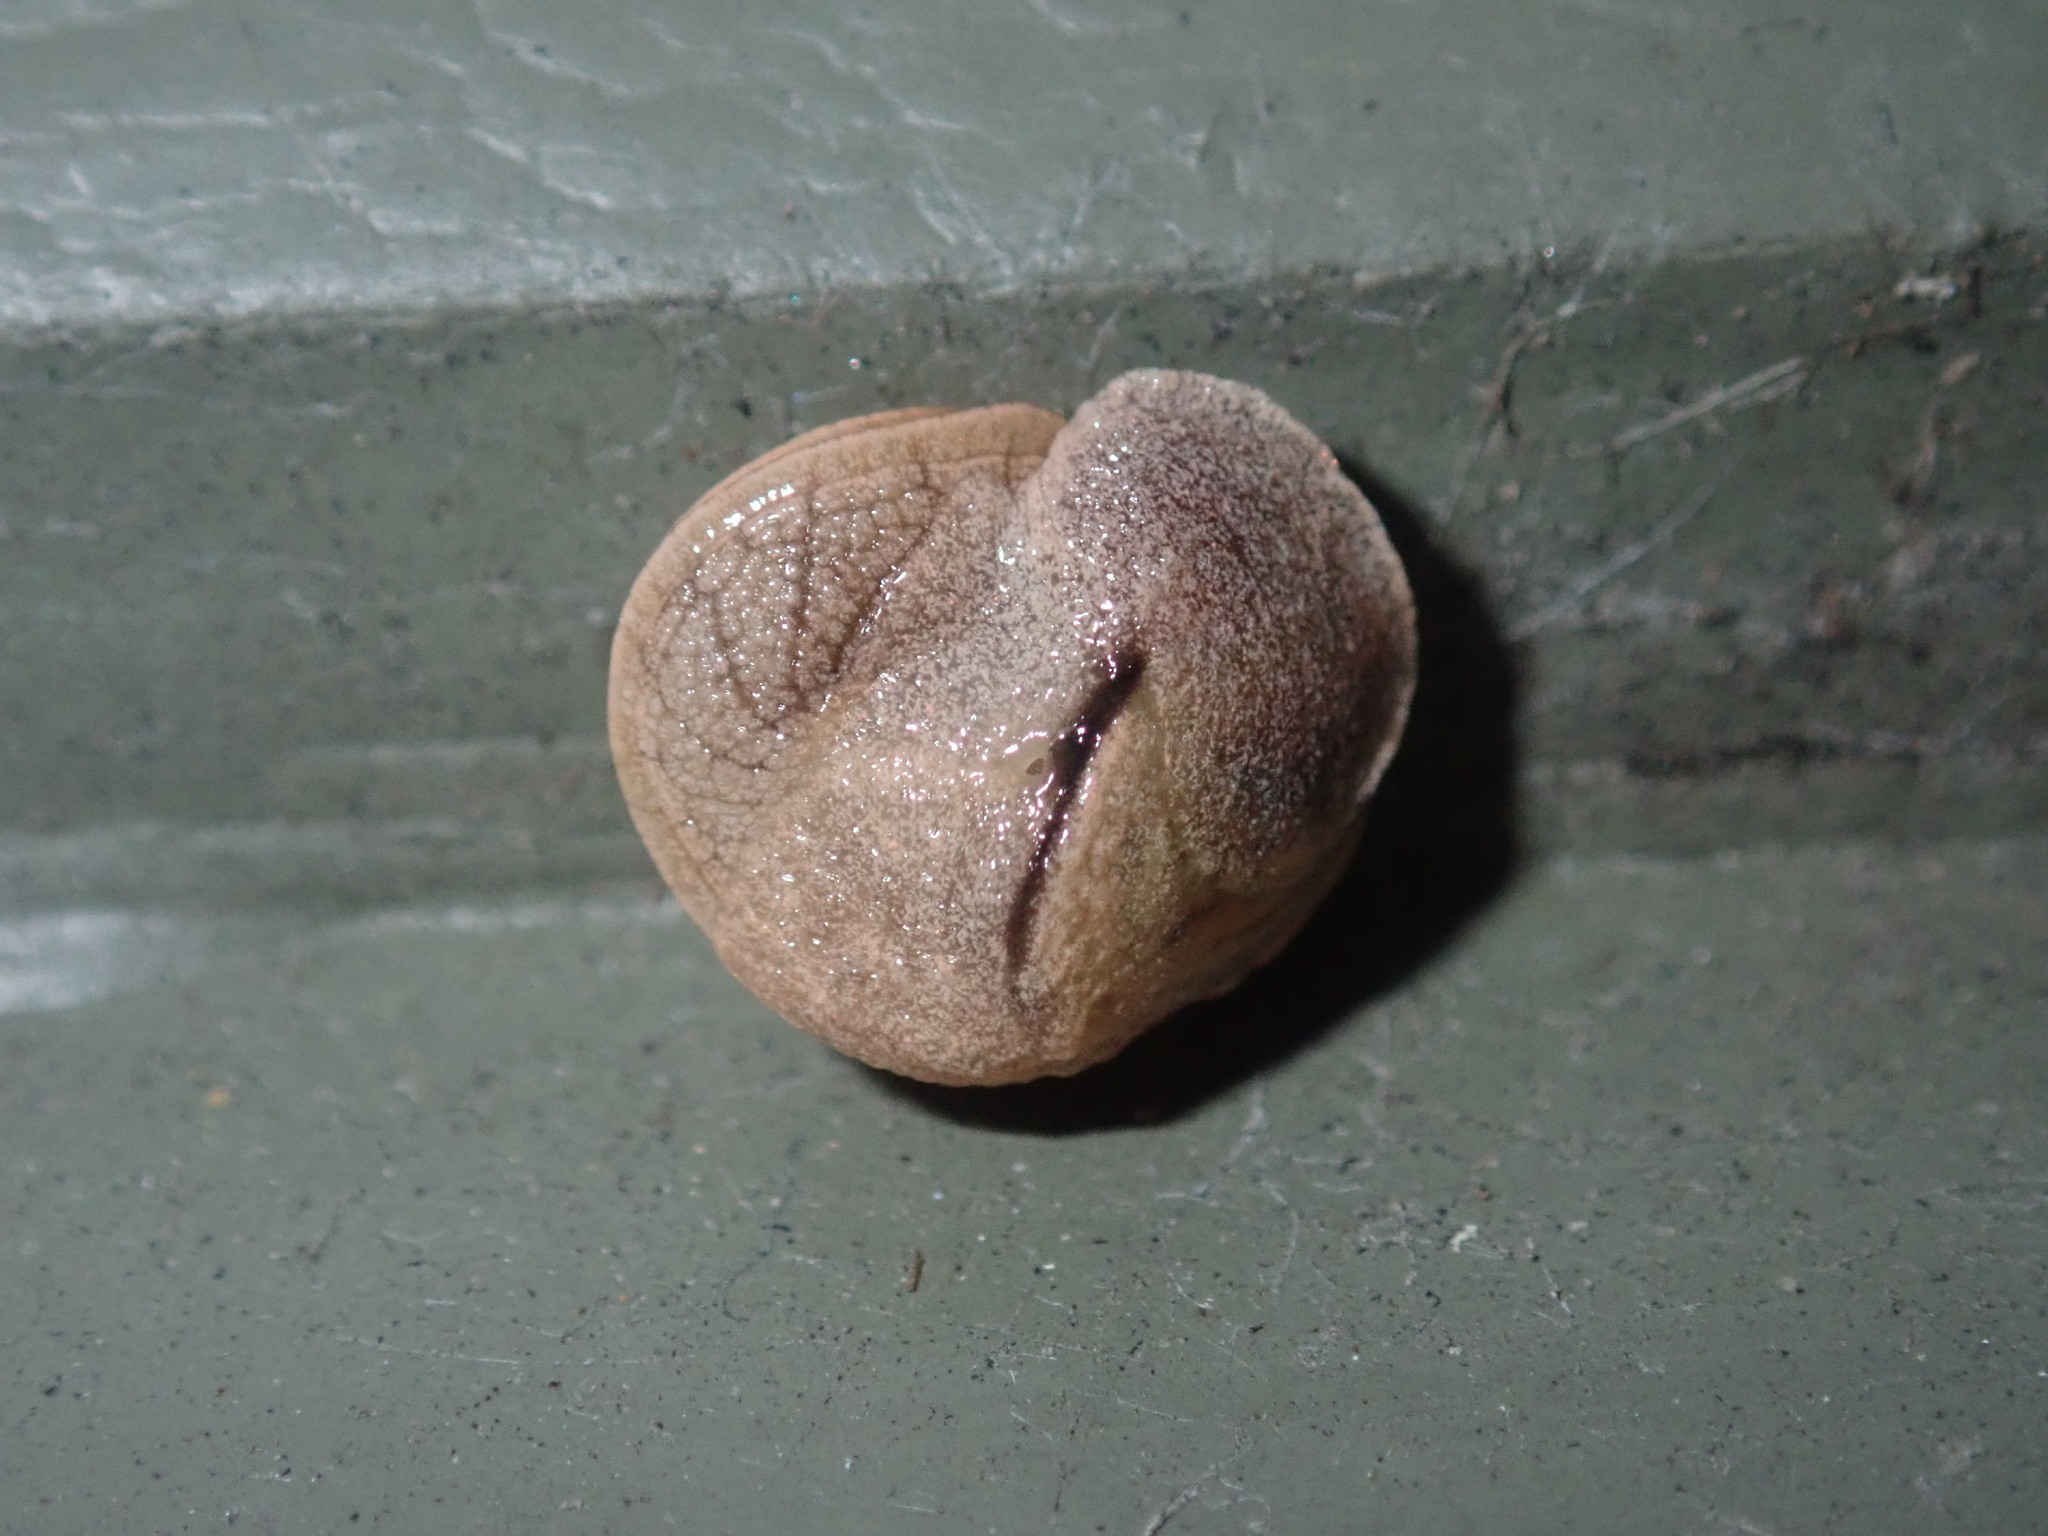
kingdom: Animalia
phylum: Mollusca
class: Gastropoda
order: Stylommatophora
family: Helicarionidae
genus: Ubiquitarion
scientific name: Ubiquitarion iridis
